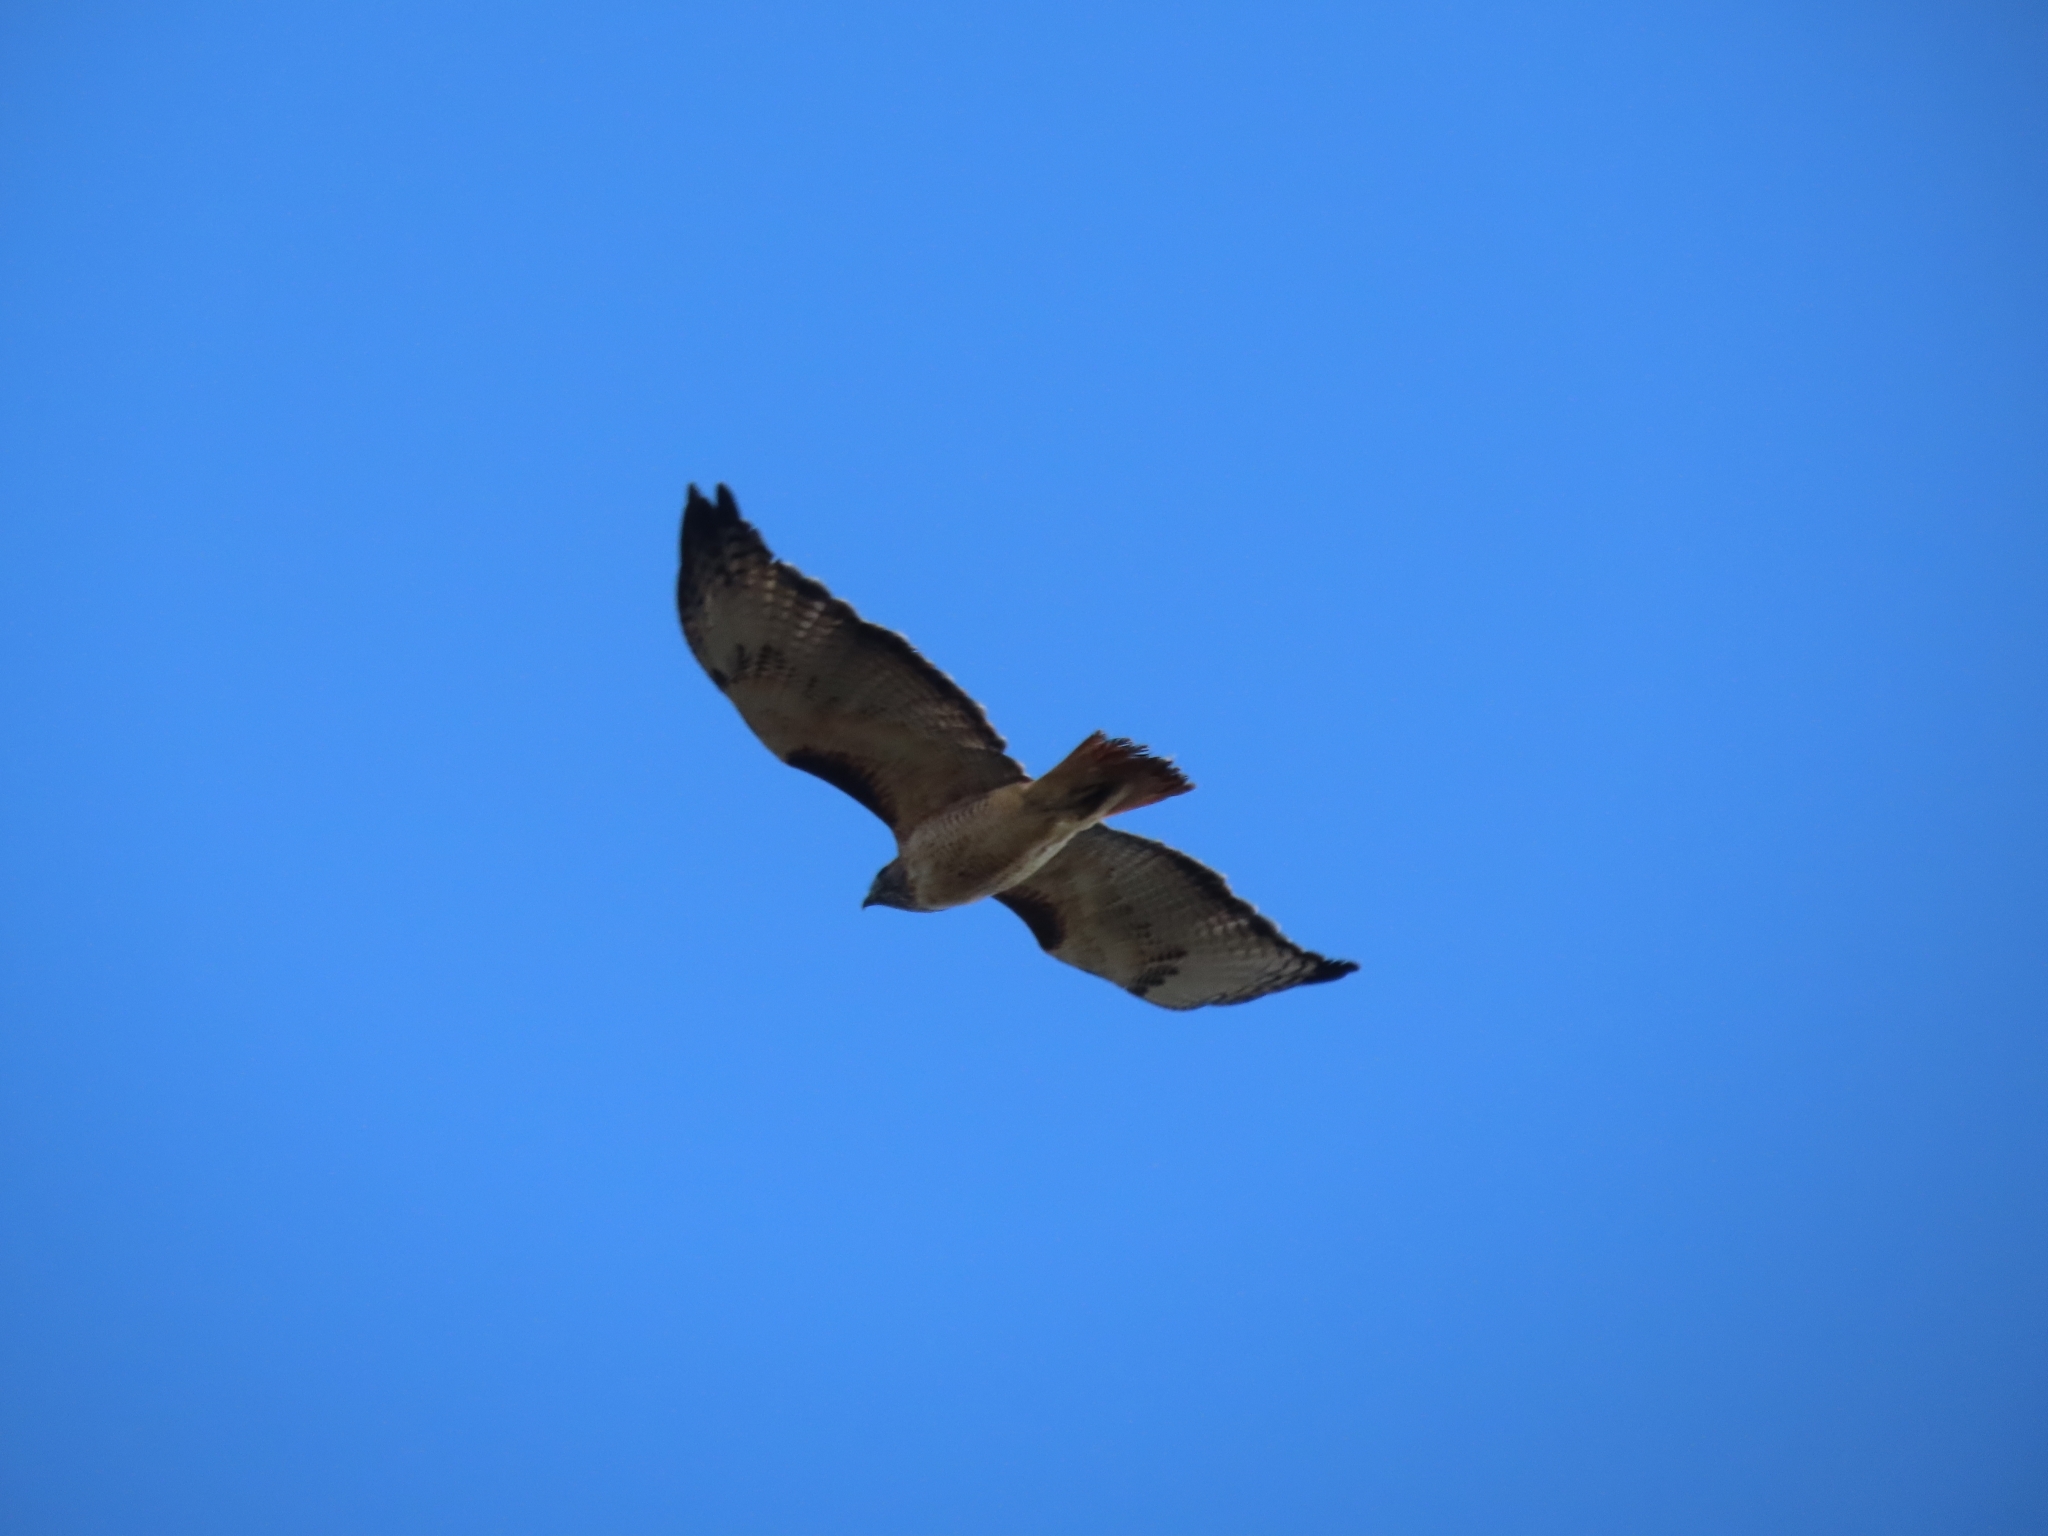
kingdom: Animalia
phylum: Chordata
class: Aves
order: Accipitriformes
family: Accipitridae
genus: Buteo
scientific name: Buteo jamaicensis
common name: Red-tailed hawk
